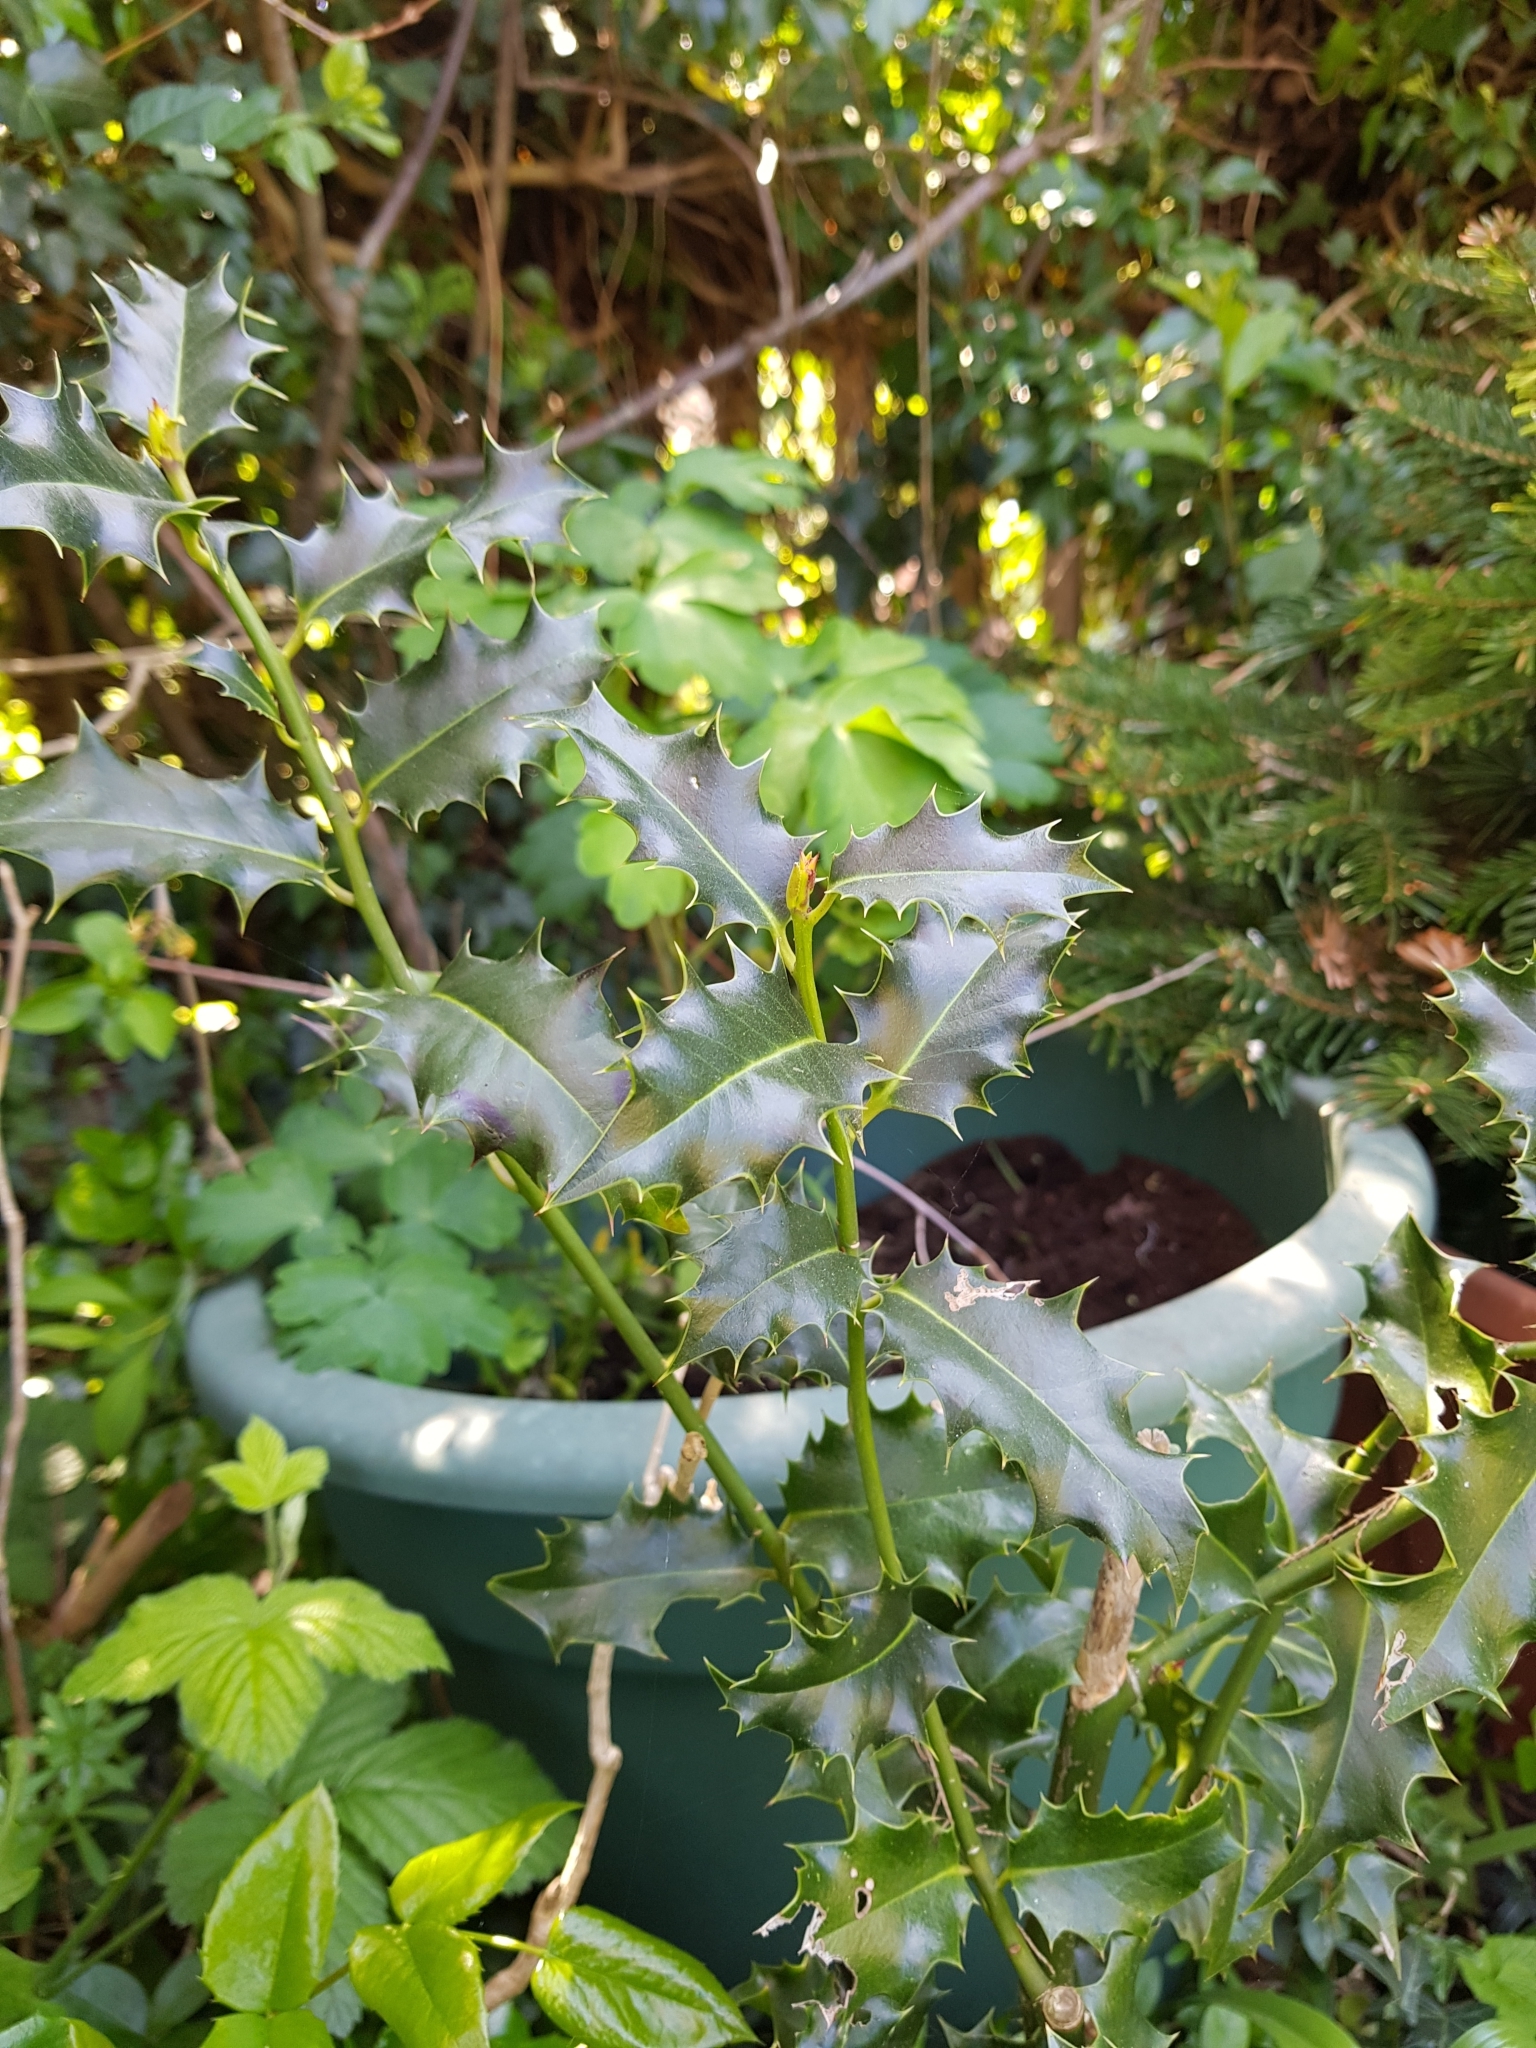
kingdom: Plantae
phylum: Tracheophyta
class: Magnoliopsida
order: Aquifoliales
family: Aquifoliaceae
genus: Ilex
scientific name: Ilex aquifolium
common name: English holly
